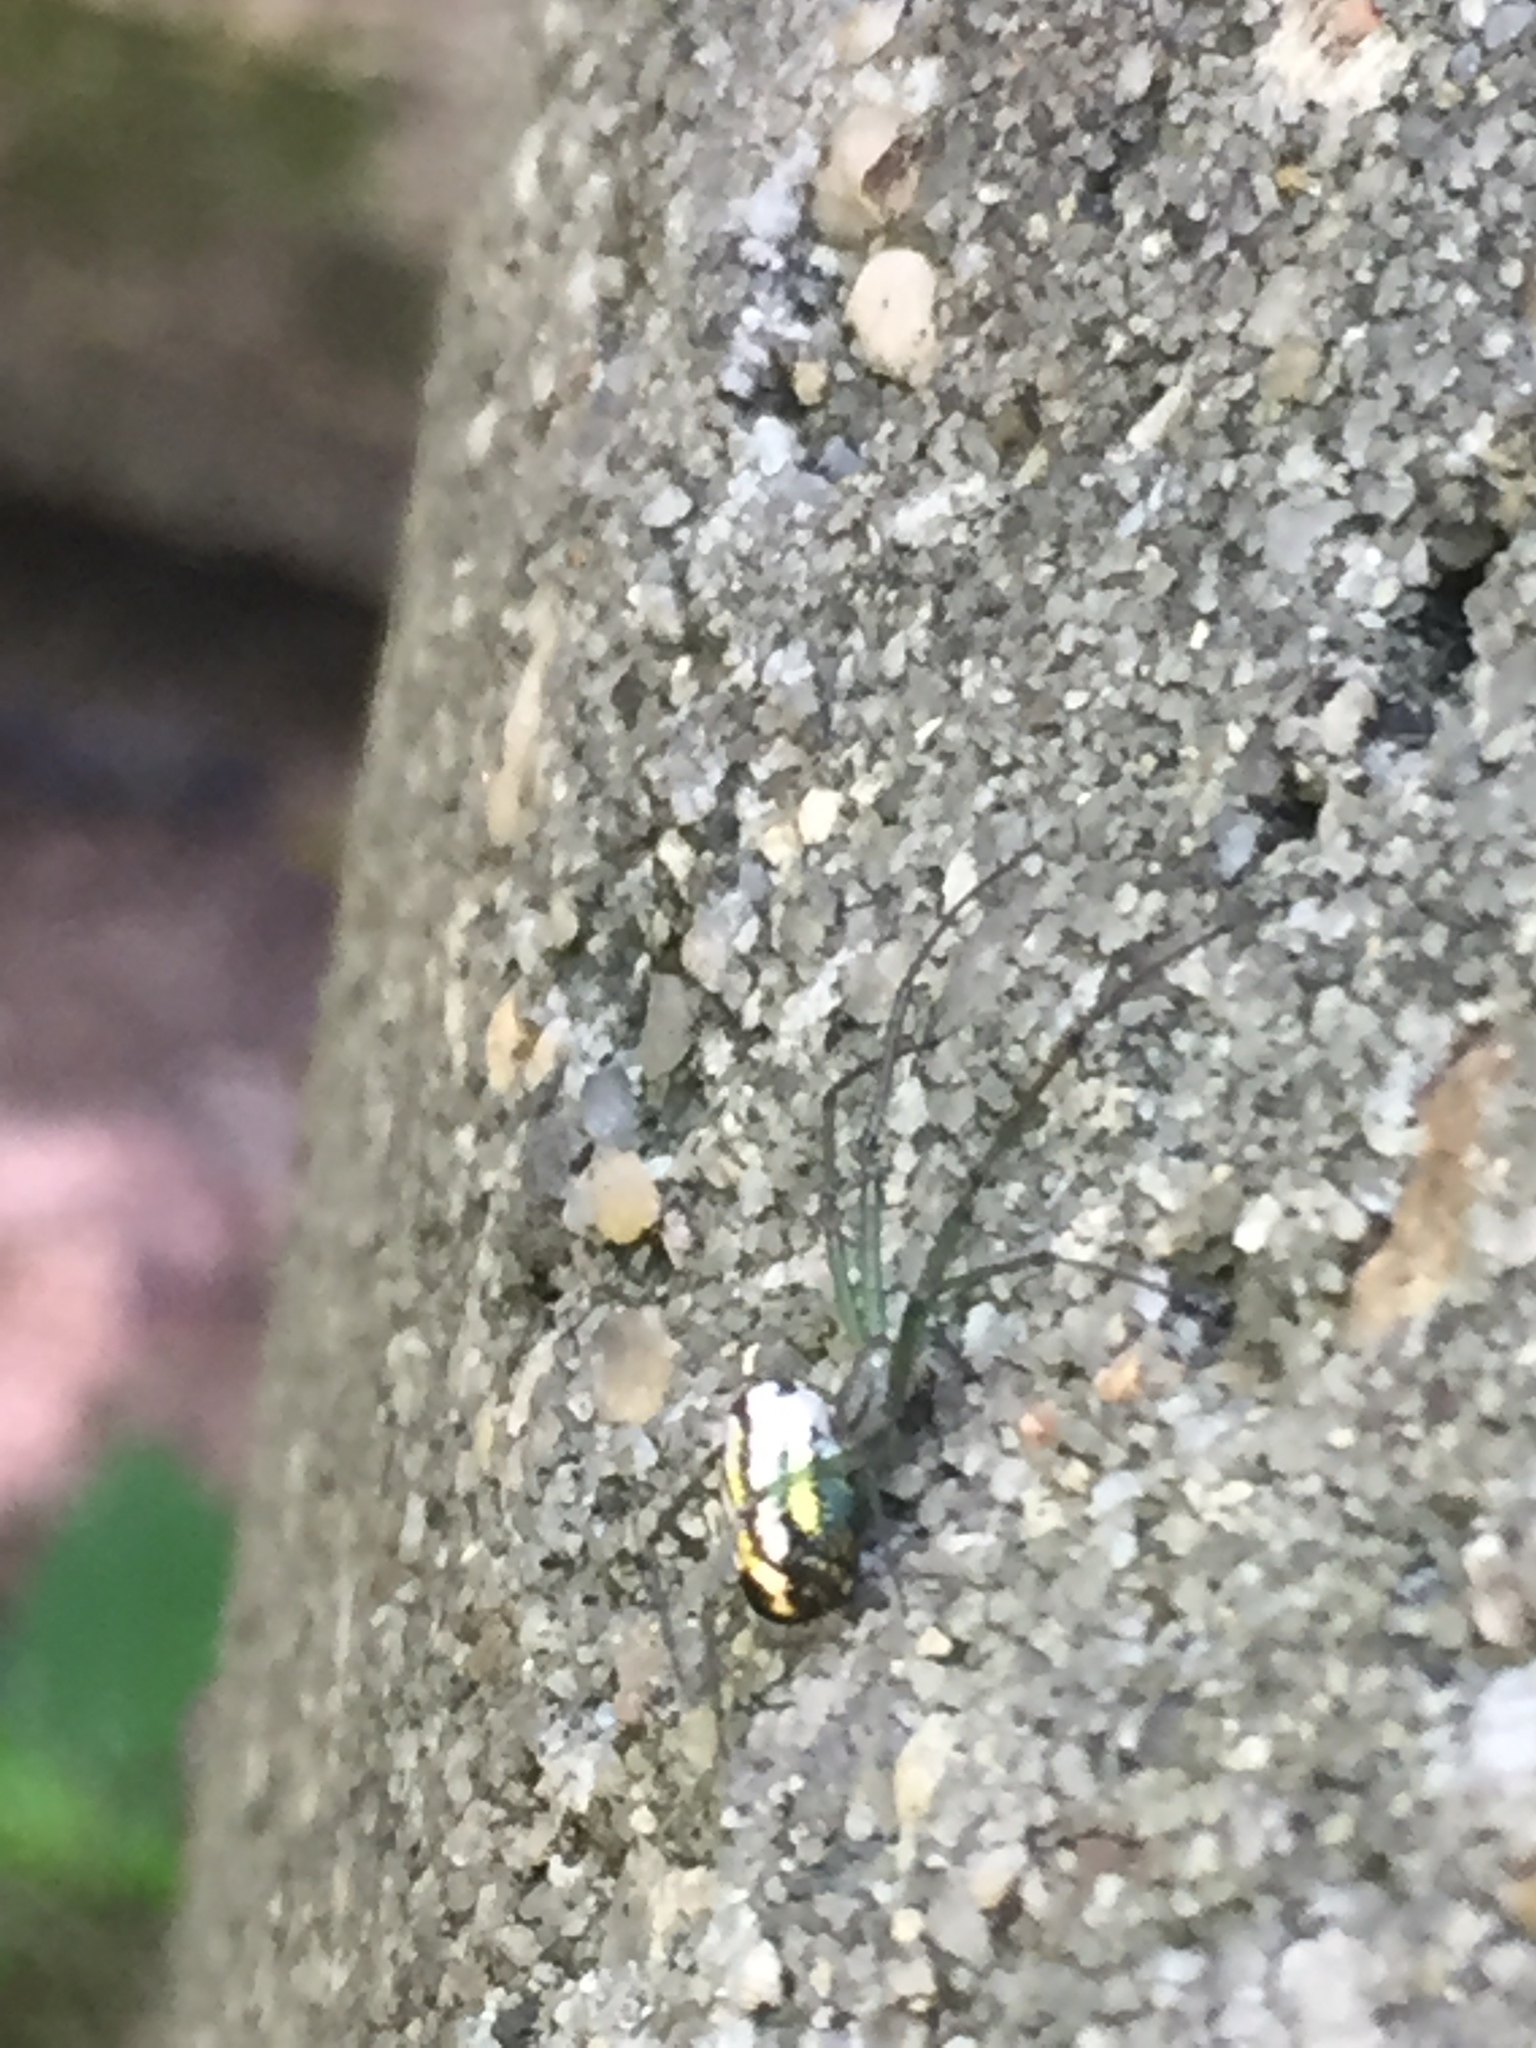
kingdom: Animalia
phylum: Arthropoda
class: Arachnida
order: Araneae
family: Tetragnathidae
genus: Leucauge
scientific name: Leucauge venusta
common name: Longjawed orb weavers
